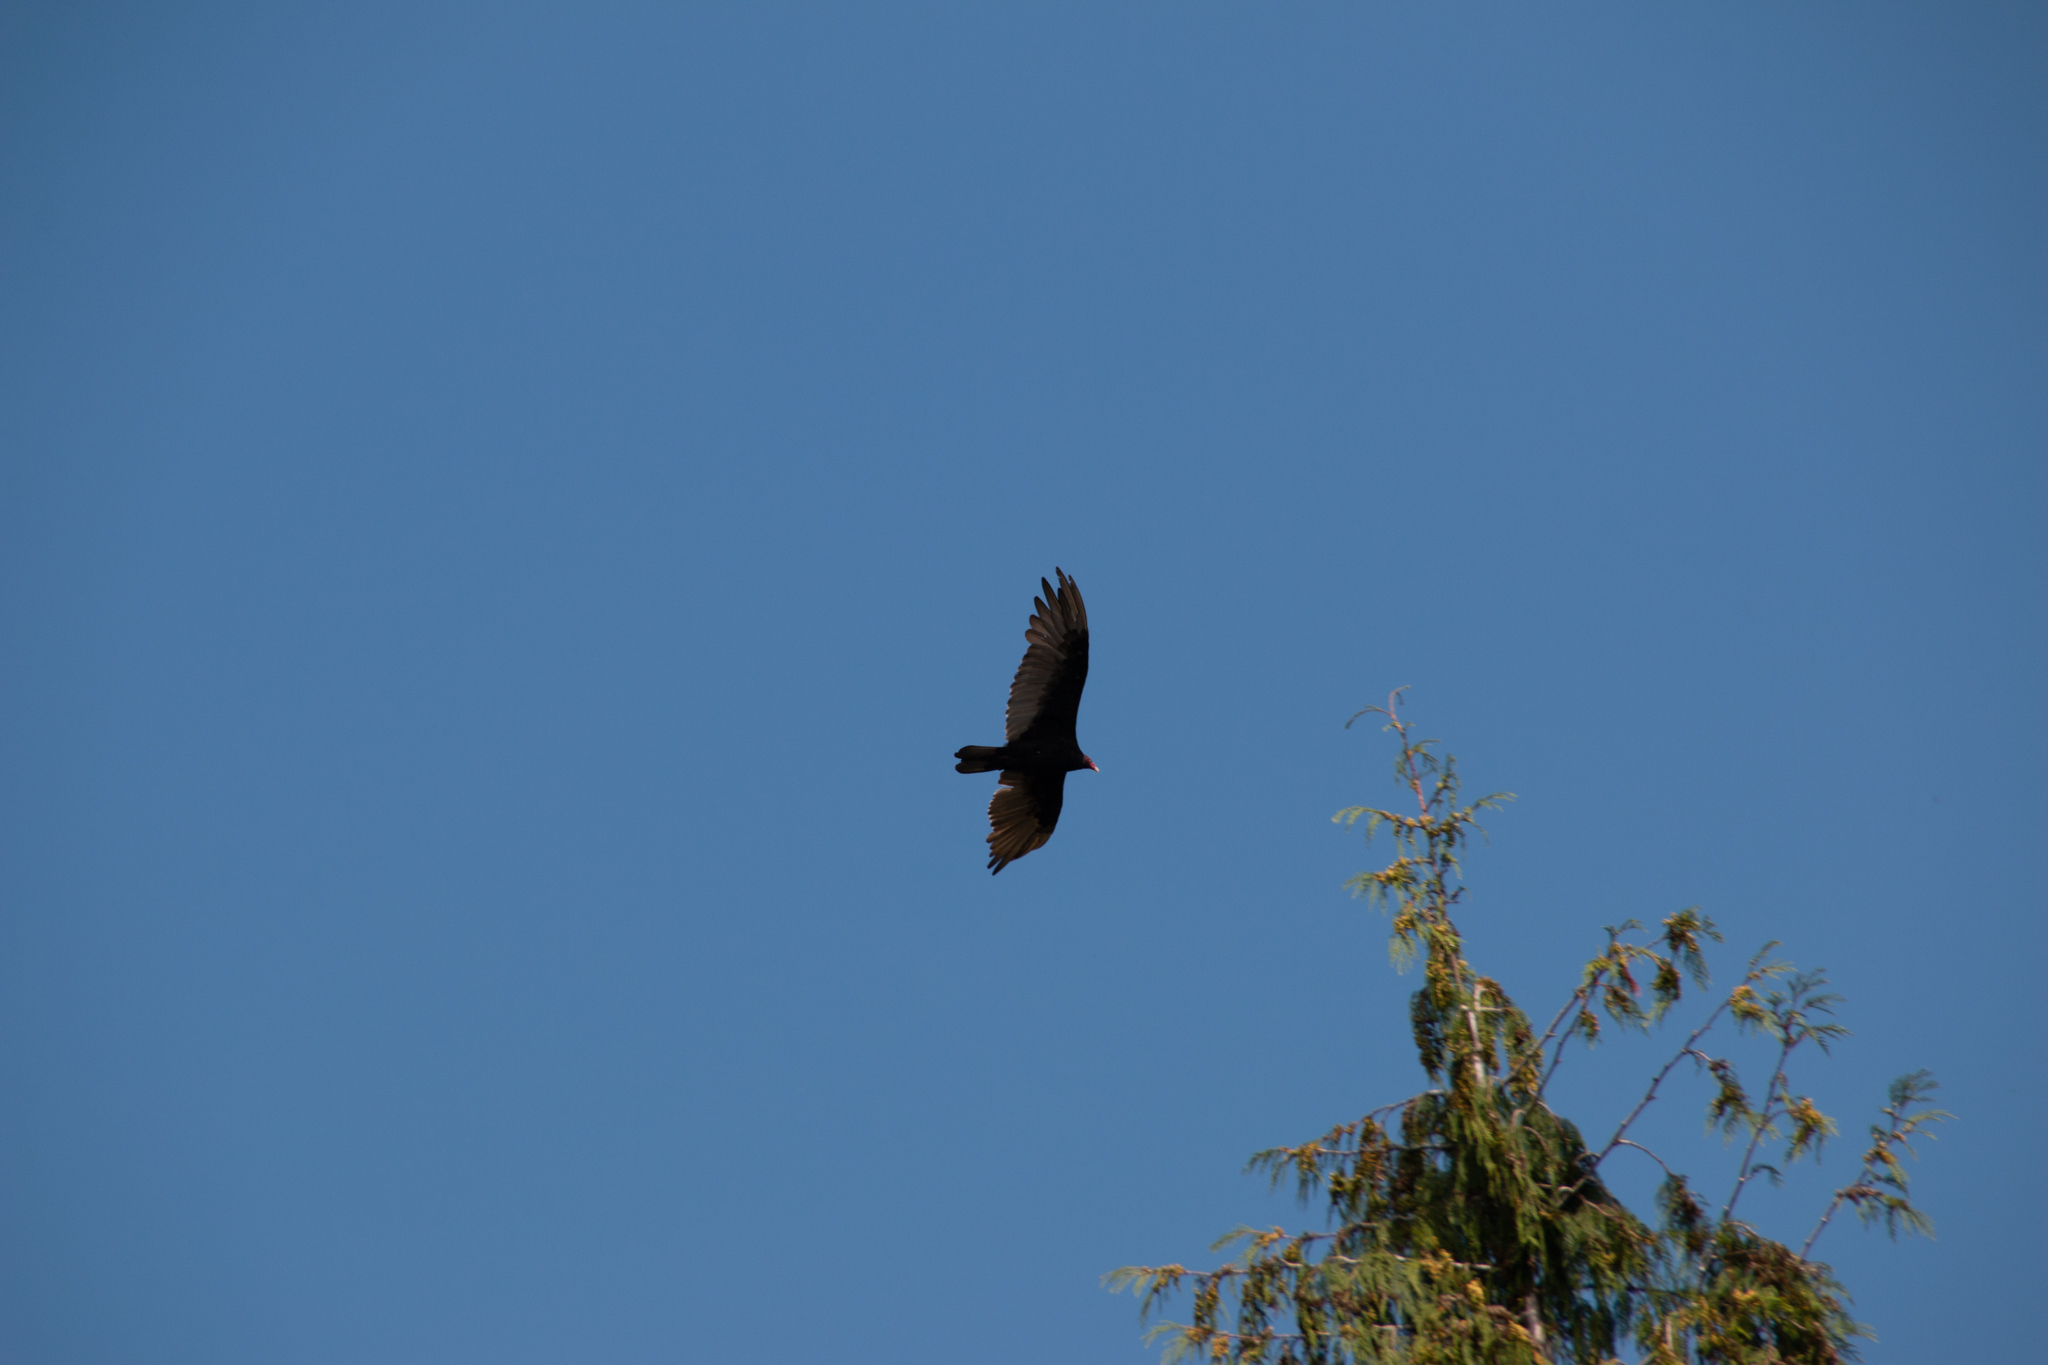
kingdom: Animalia
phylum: Chordata
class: Aves
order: Accipitriformes
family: Cathartidae
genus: Cathartes
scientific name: Cathartes aura
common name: Turkey vulture
